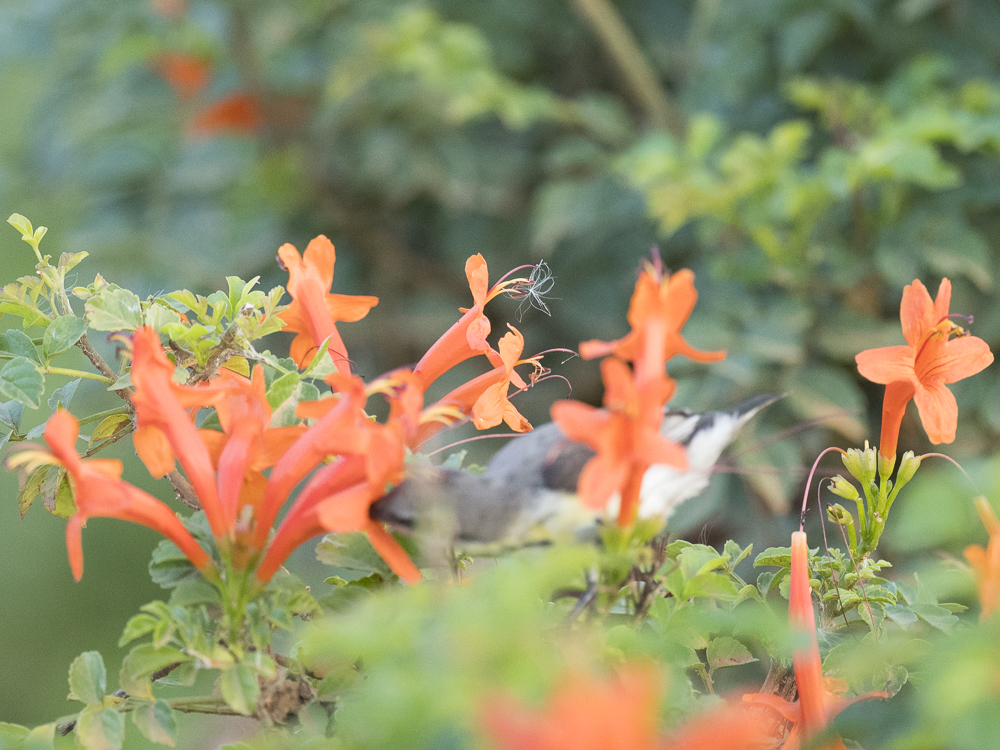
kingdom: Plantae
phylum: Tracheophyta
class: Magnoliopsida
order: Lamiales
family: Bignoniaceae
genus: Tecomaria
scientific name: Tecomaria capensis
